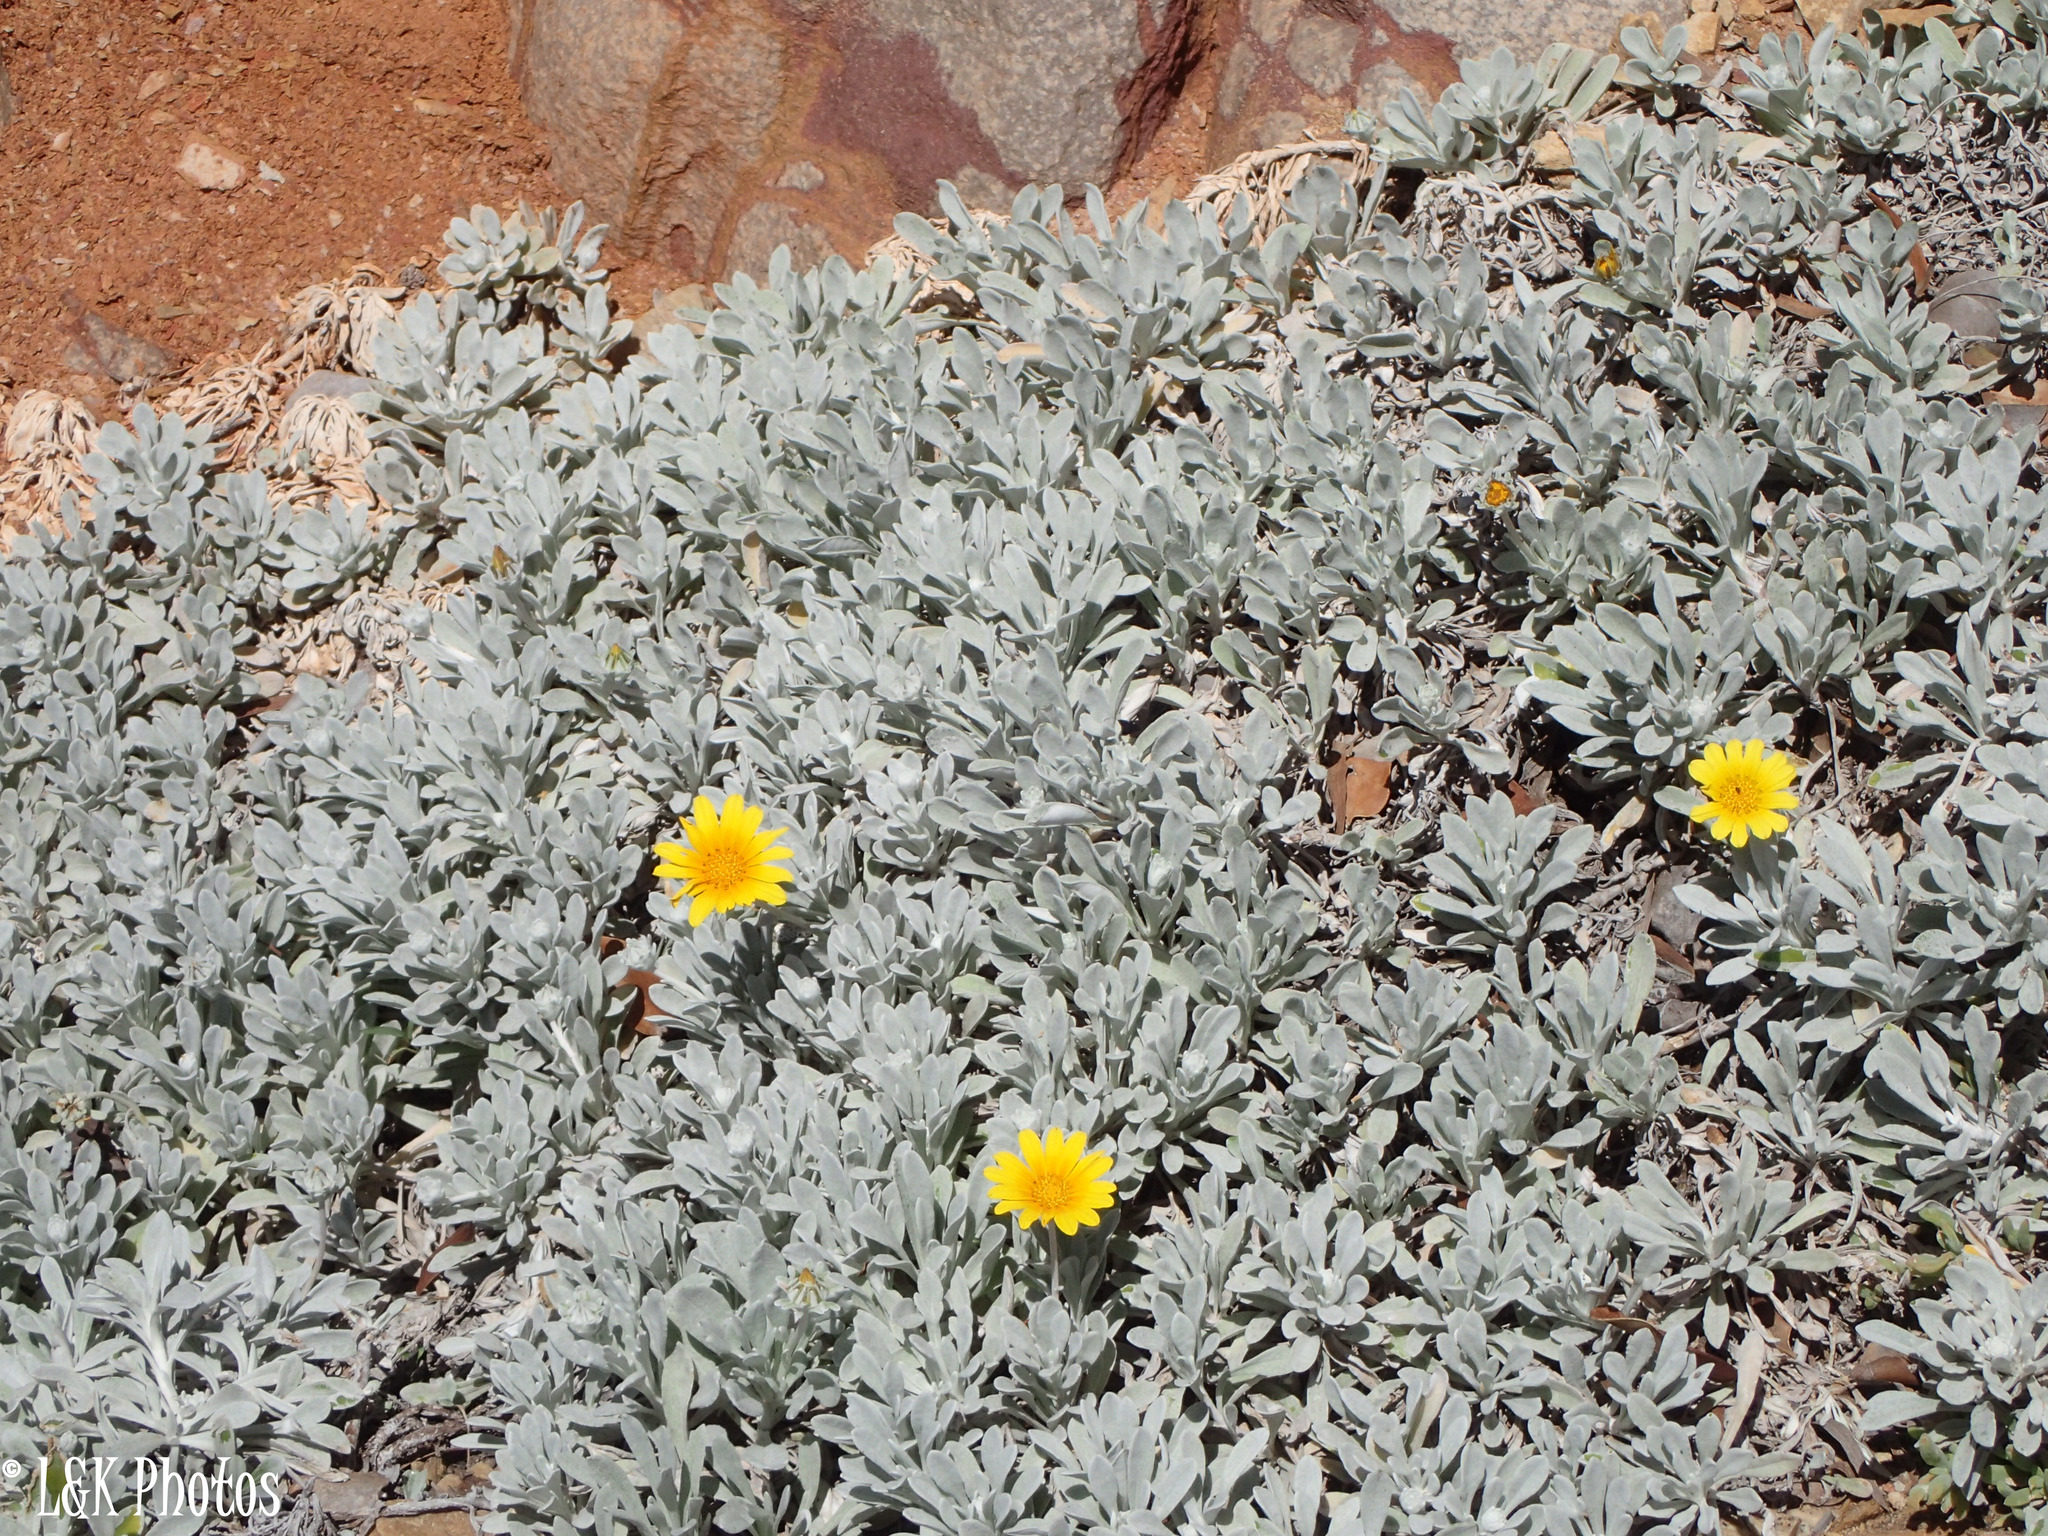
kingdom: Plantae
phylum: Tracheophyta
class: Magnoliopsida
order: Asterales
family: Asteraceae
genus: Gazania
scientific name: Gazania rigens
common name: Treasureflower
